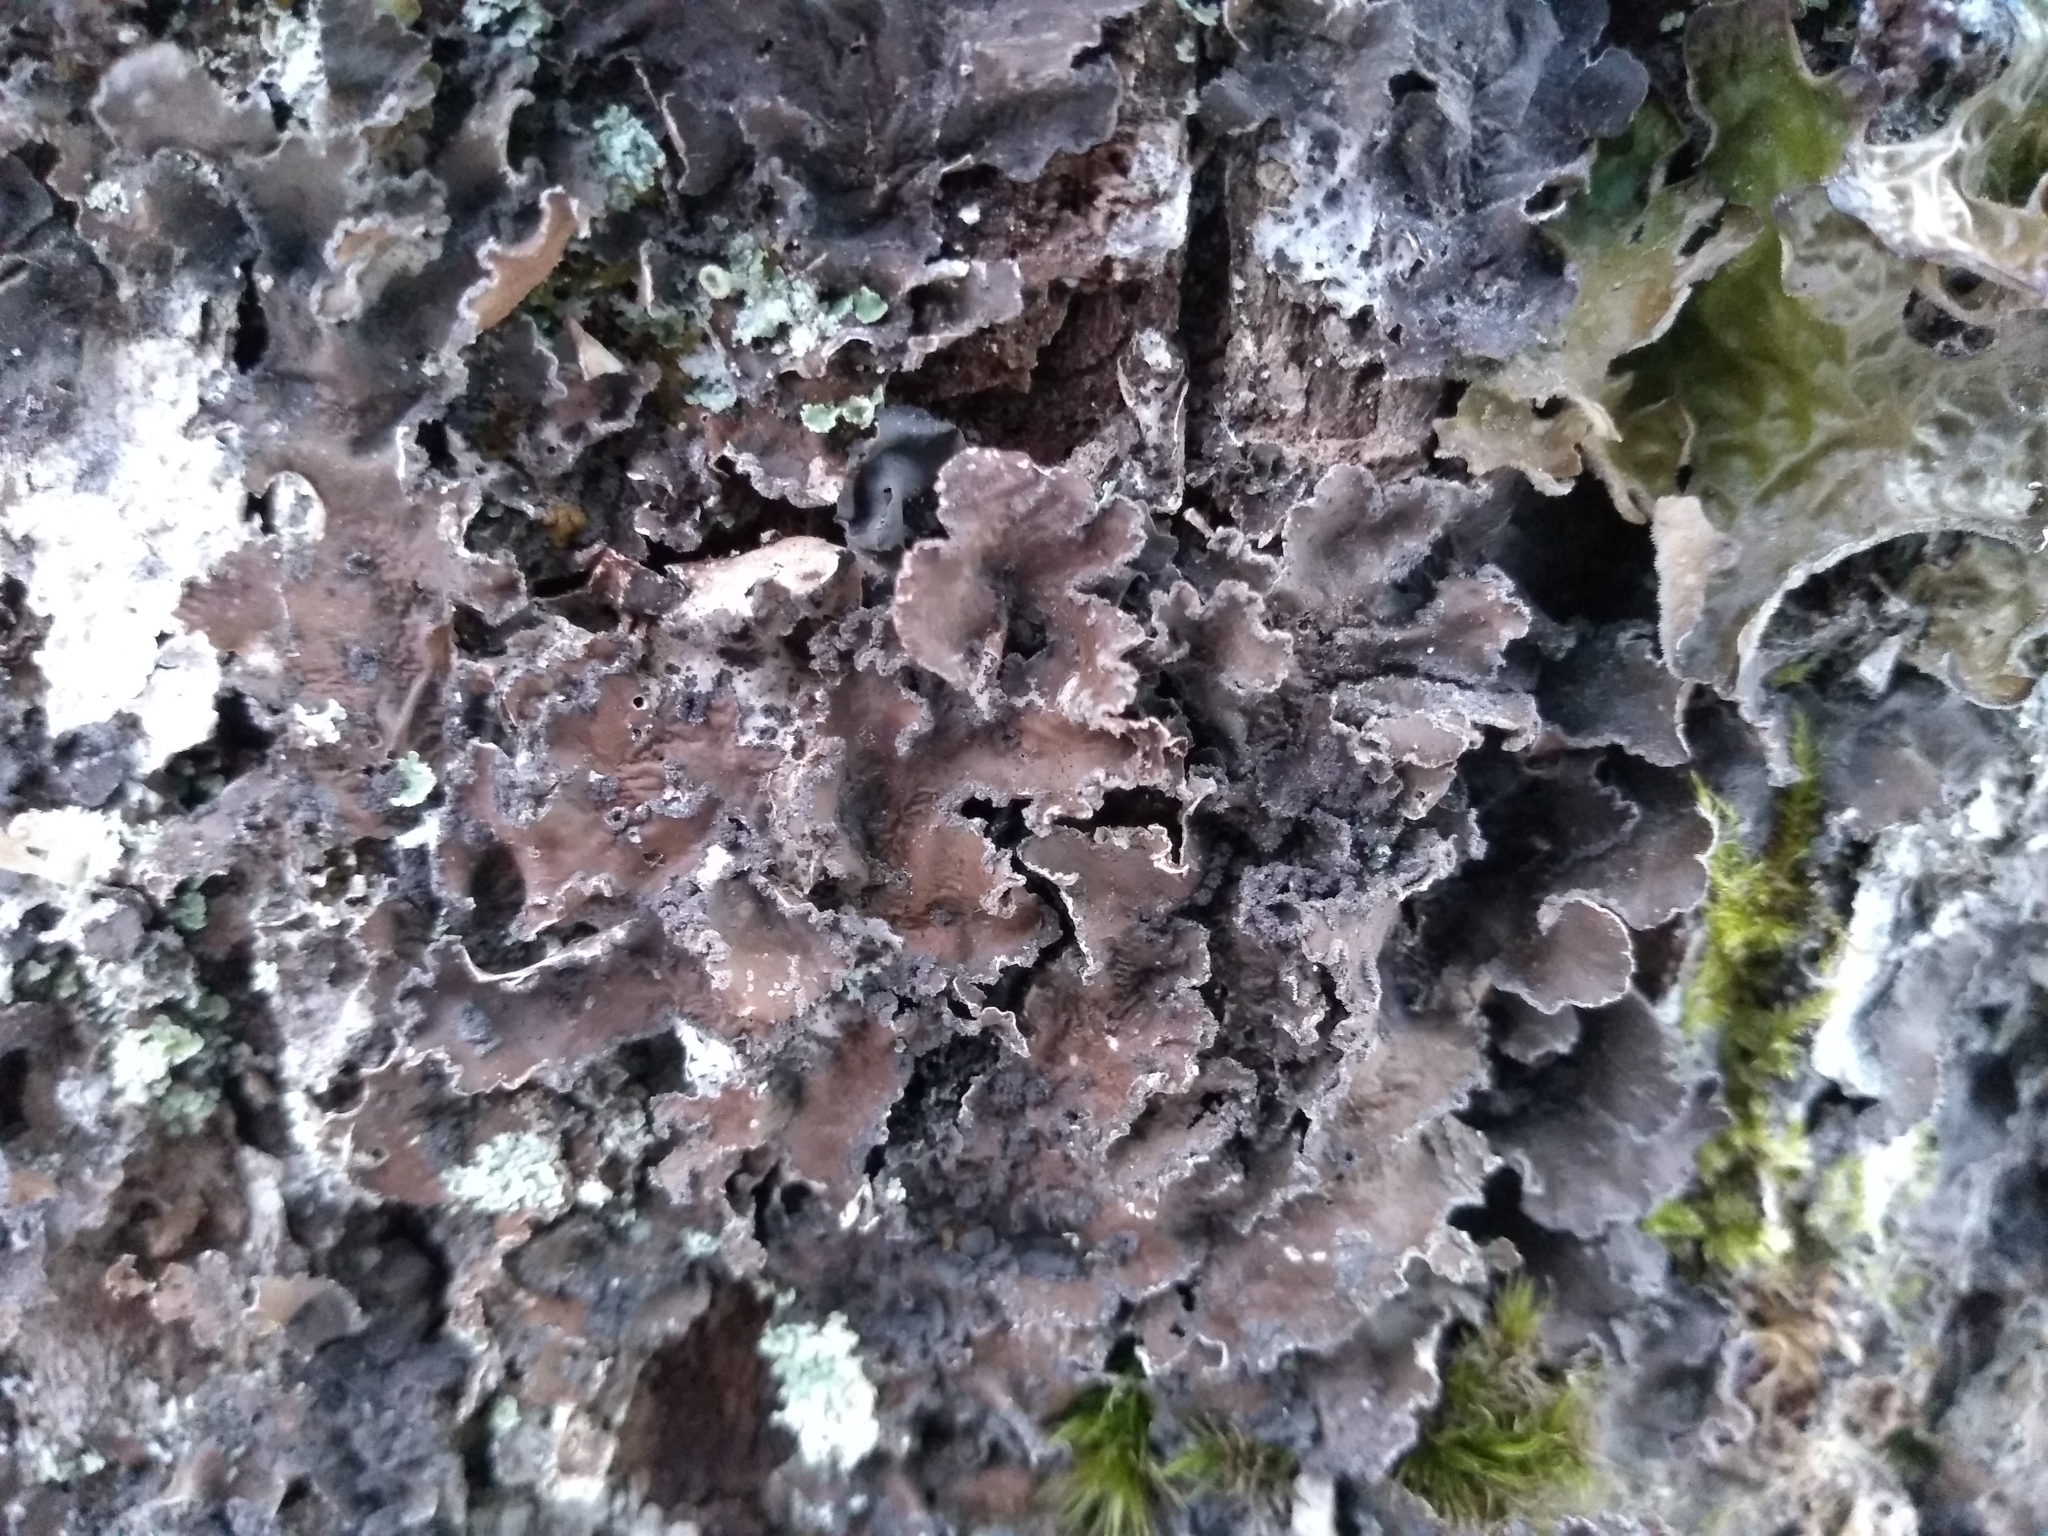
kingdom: Fungi
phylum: Ascomycota
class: Lecanoromycetes
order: Peltigerales
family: Nephromataceae
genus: Nephroma
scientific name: Nephroma parile
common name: Powdery kidney lichen
